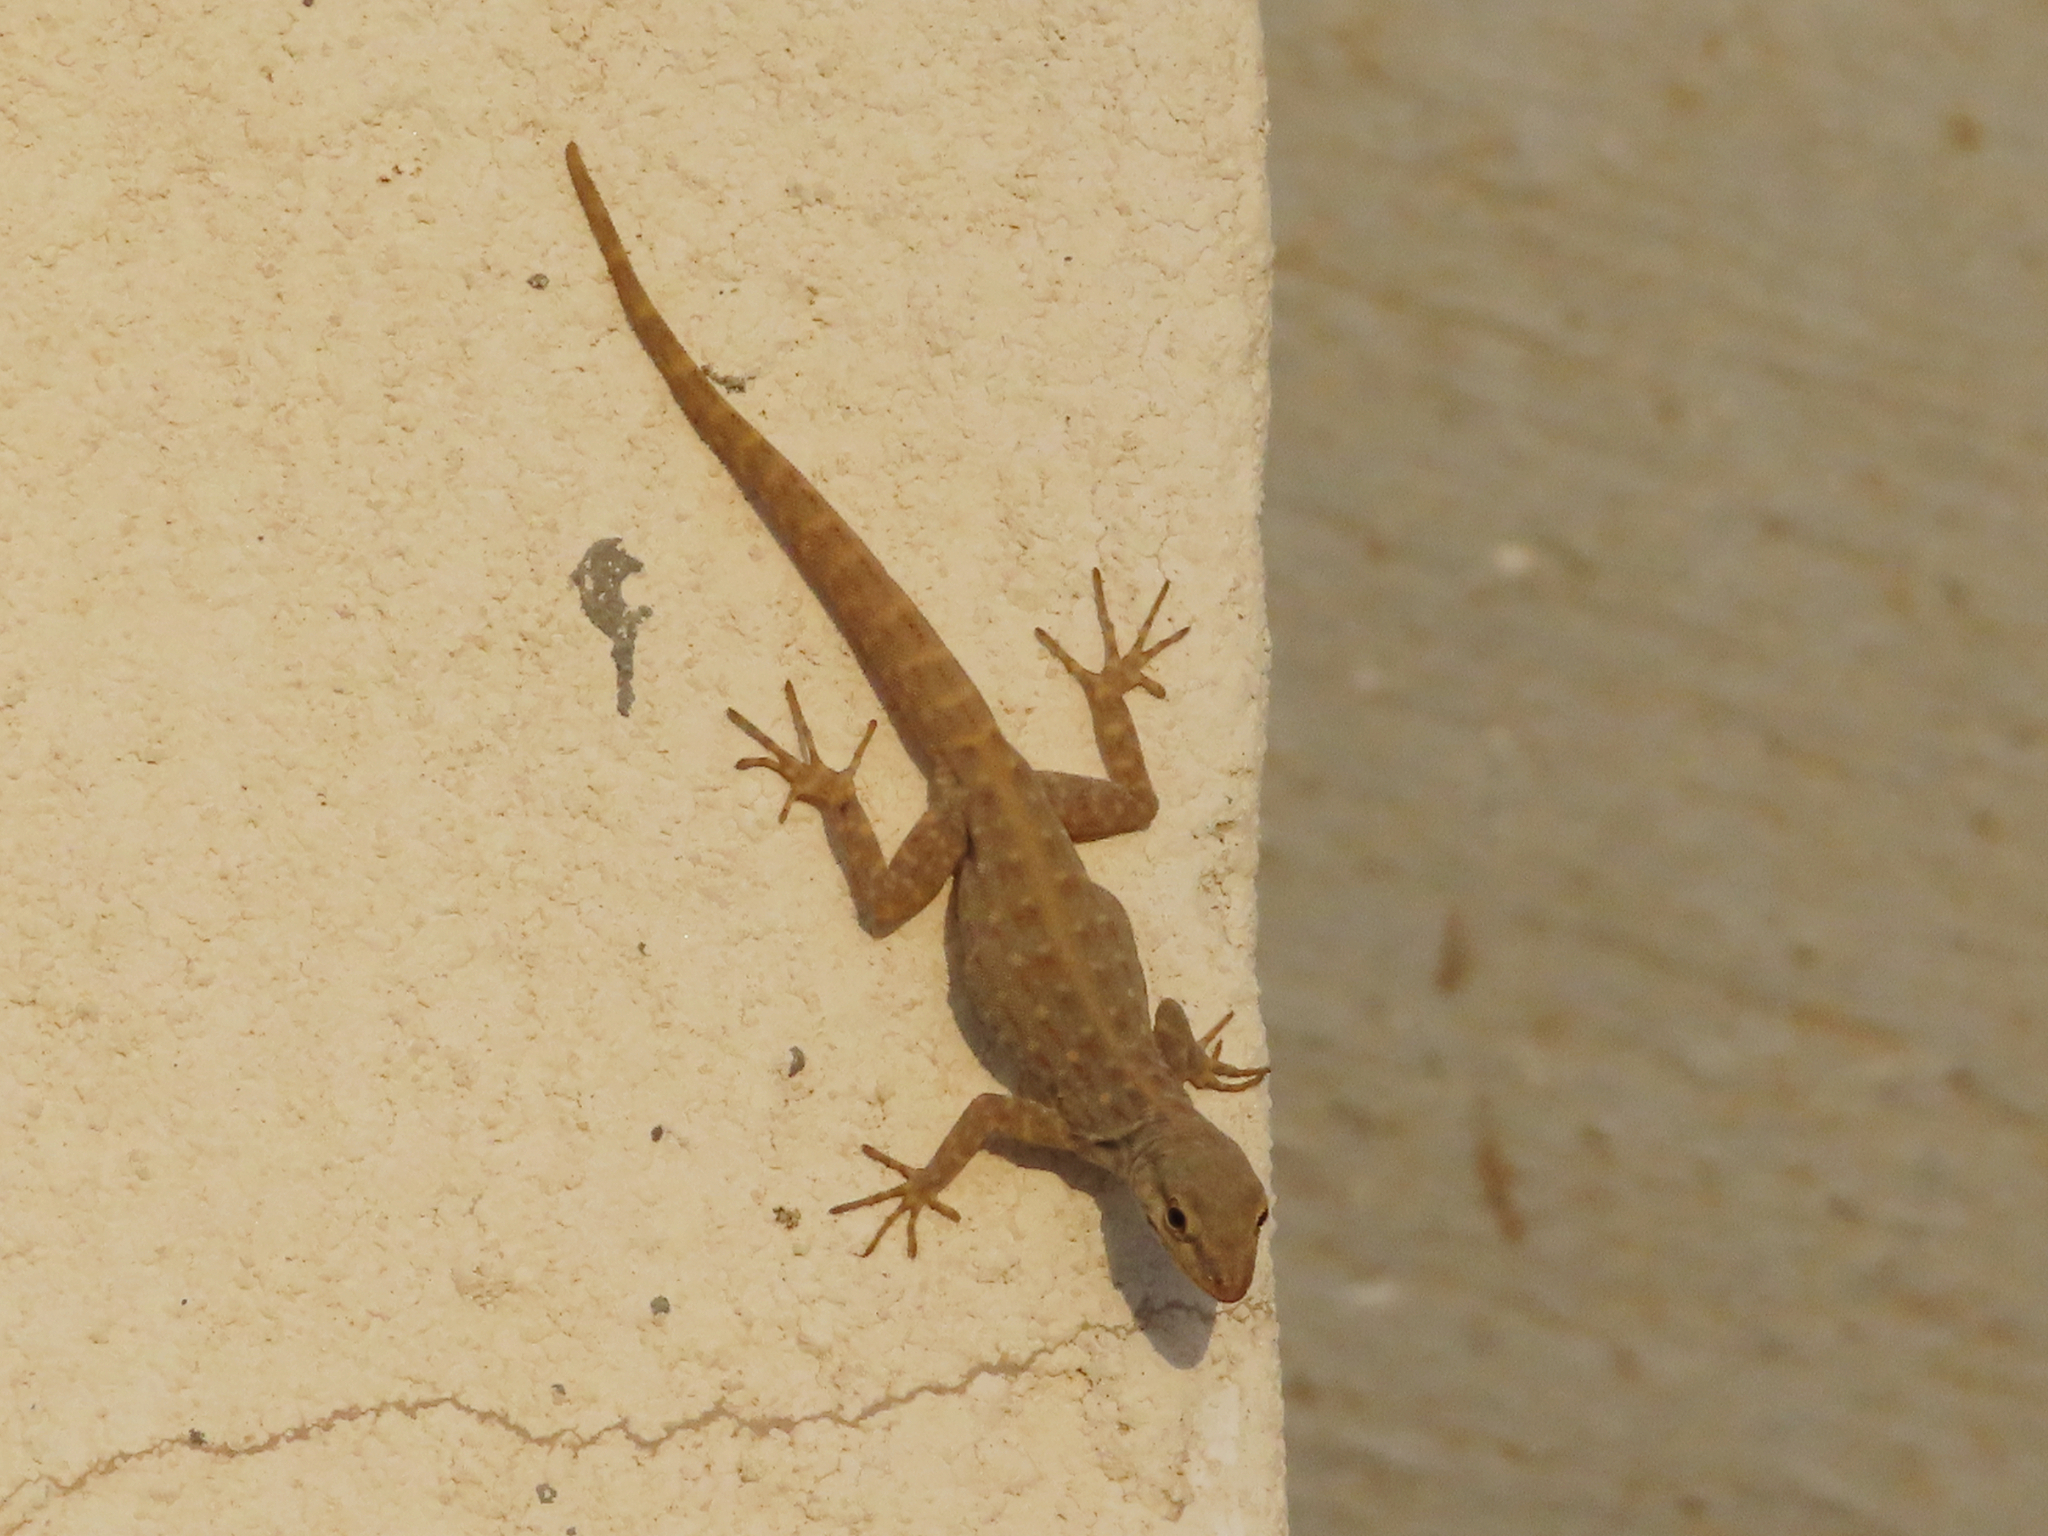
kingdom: Animalia
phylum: Chordata
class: Squamata
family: Sphaerodactylidae
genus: Pristurus
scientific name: Pristurus rupestris
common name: Blanford’s semaphore gecko
